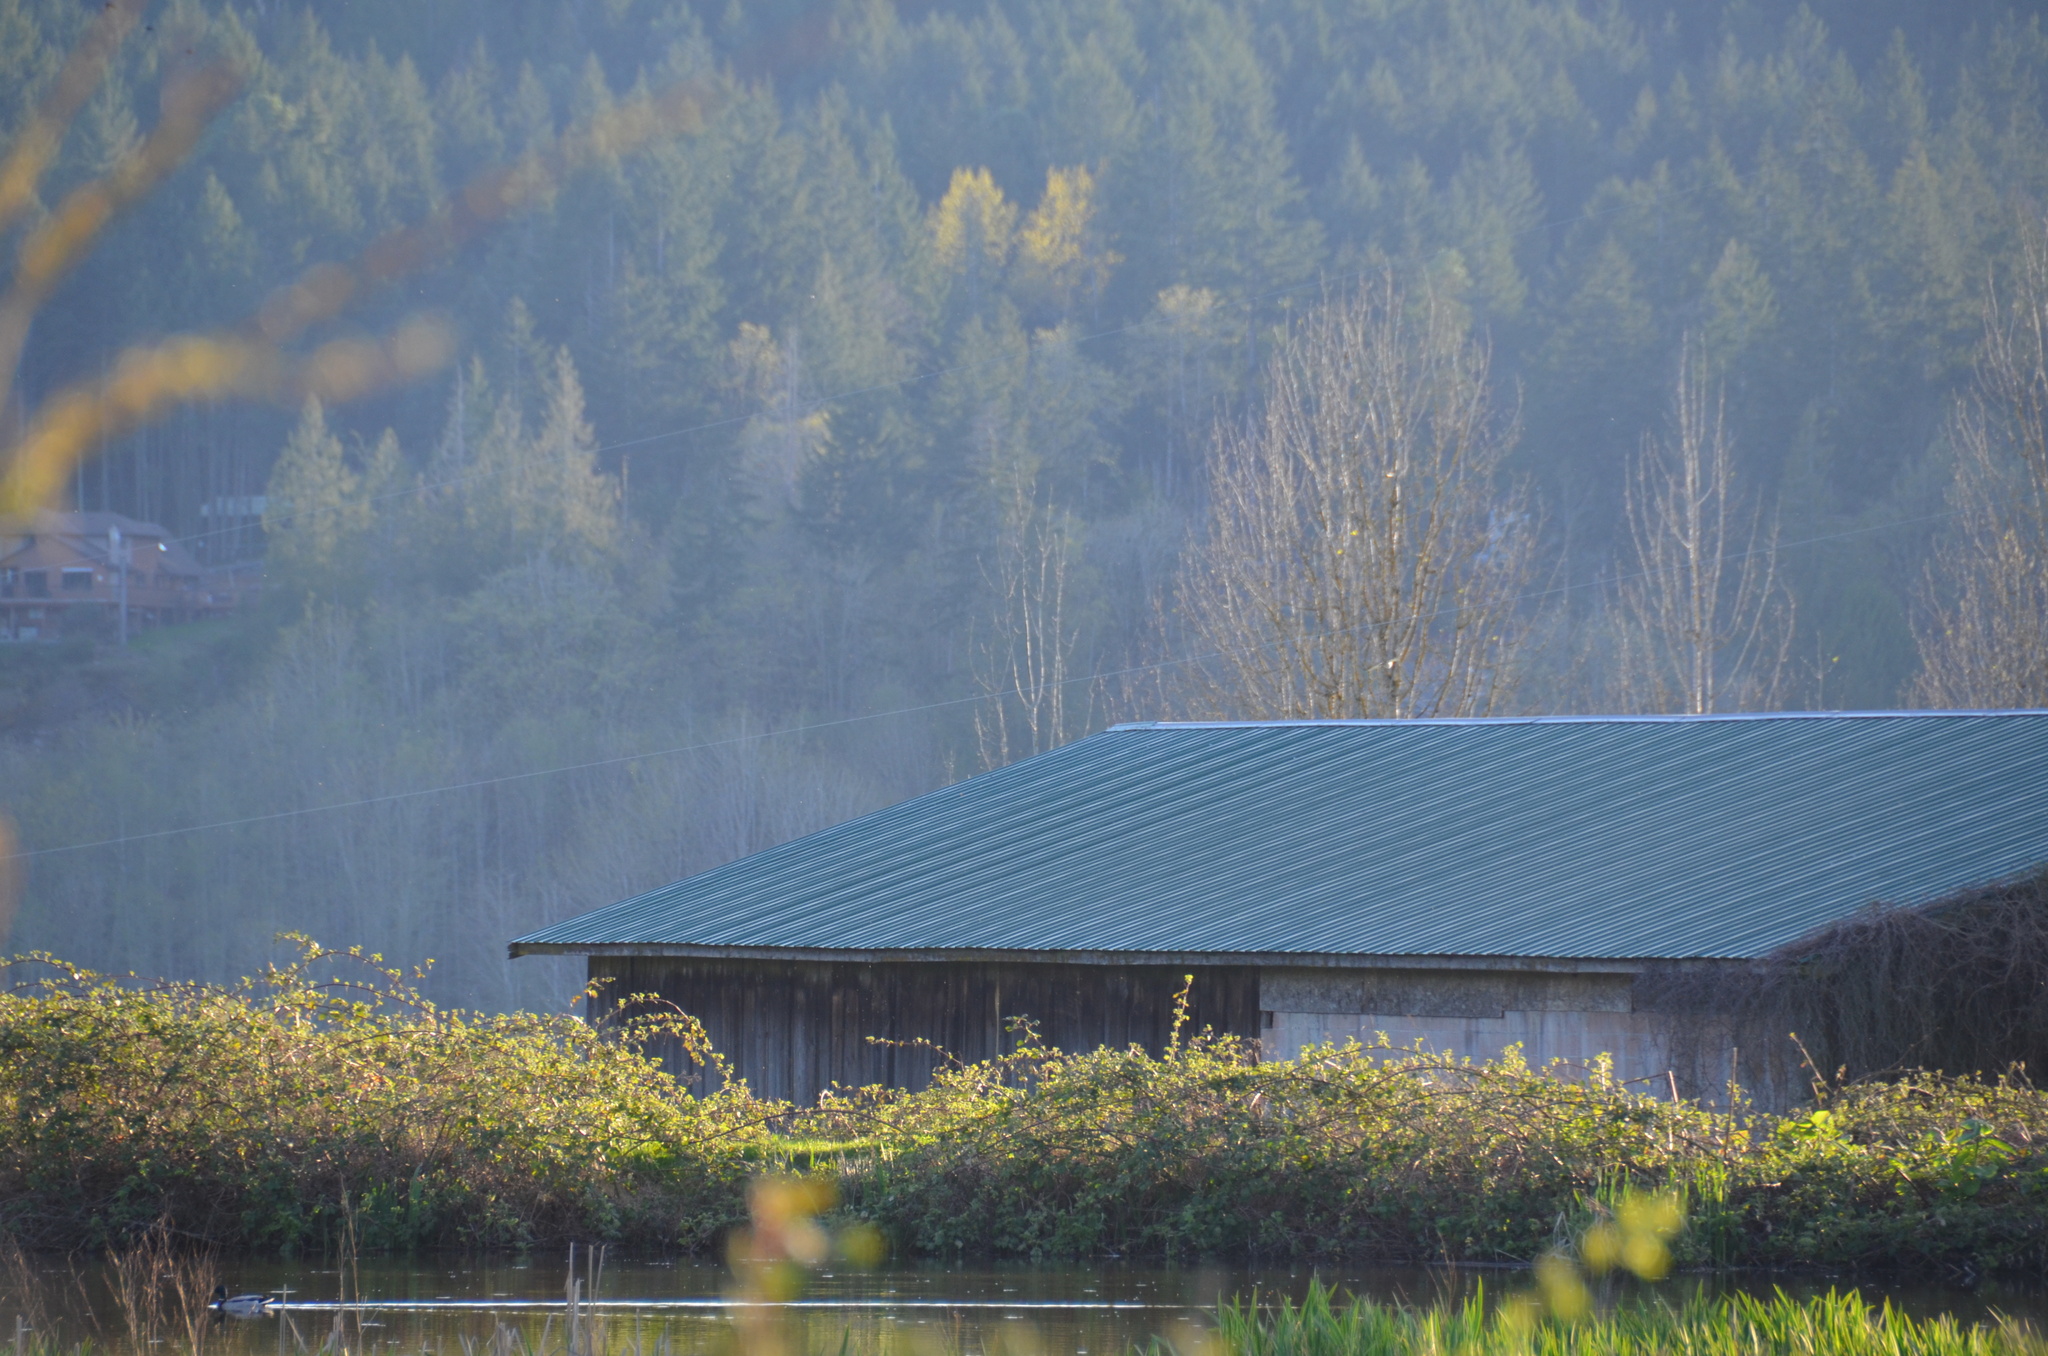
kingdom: Animalia
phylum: Chordata
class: Aves
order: Anseriformes
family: Anatidae
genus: Anas
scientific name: Anas platyrhynchos
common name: Mallard
